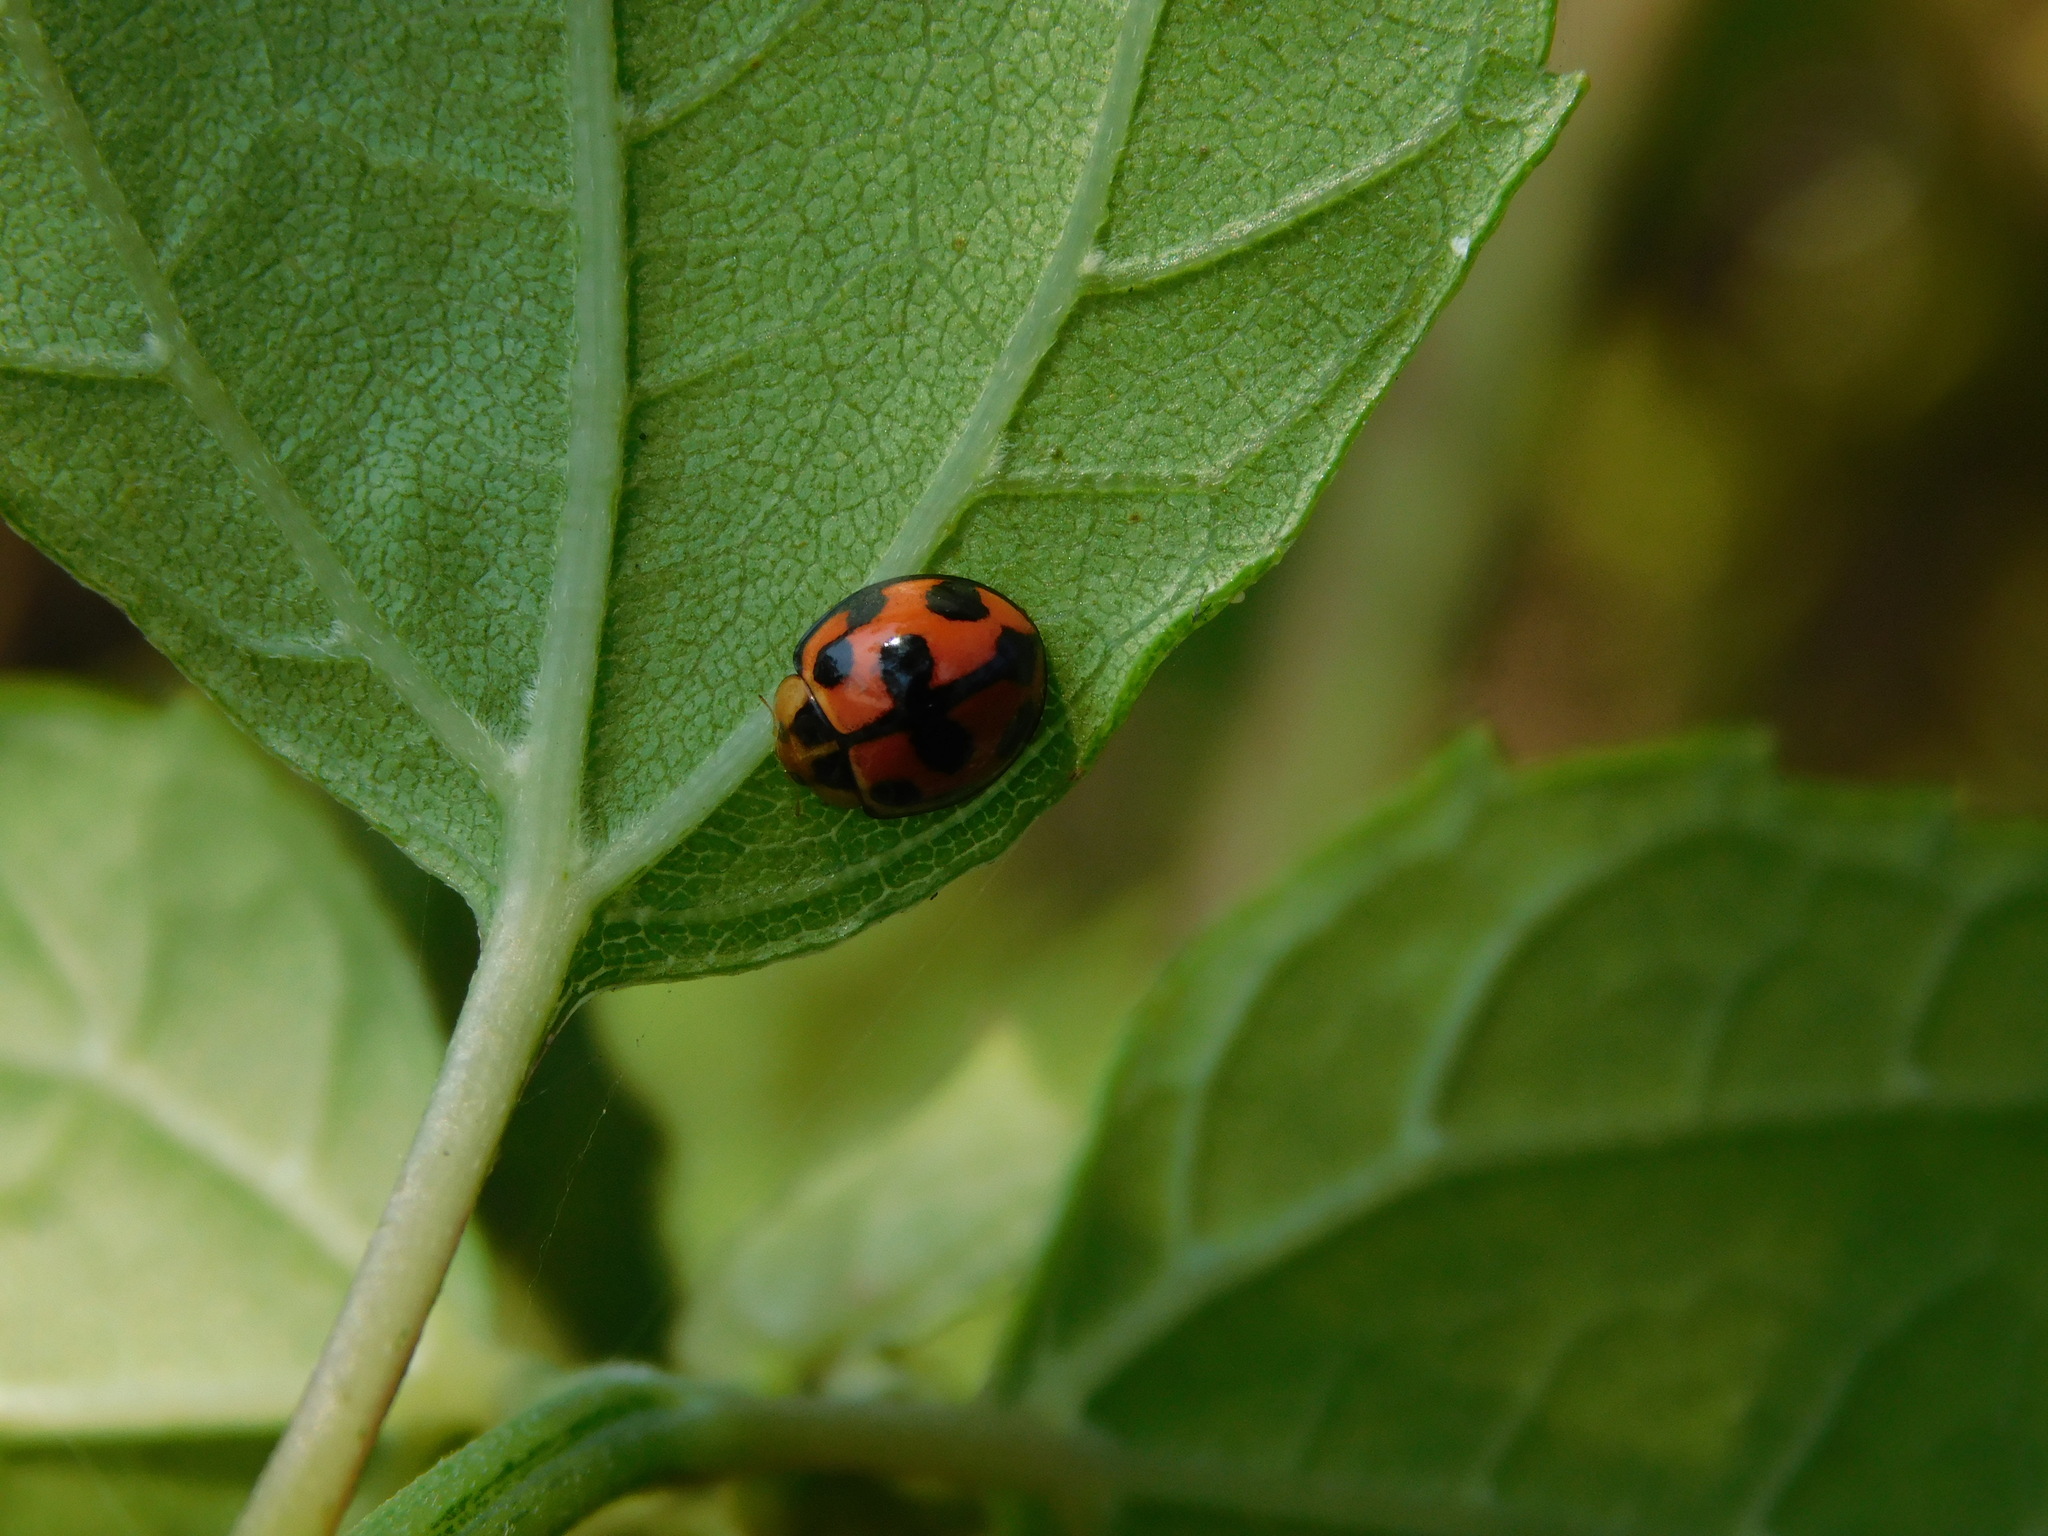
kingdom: Animalia
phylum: Arthropoda
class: Insecta
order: Coleoptera
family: Coccinellidae
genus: Coelophora
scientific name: Coelophora inaequalis
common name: Common australian lady beetle
